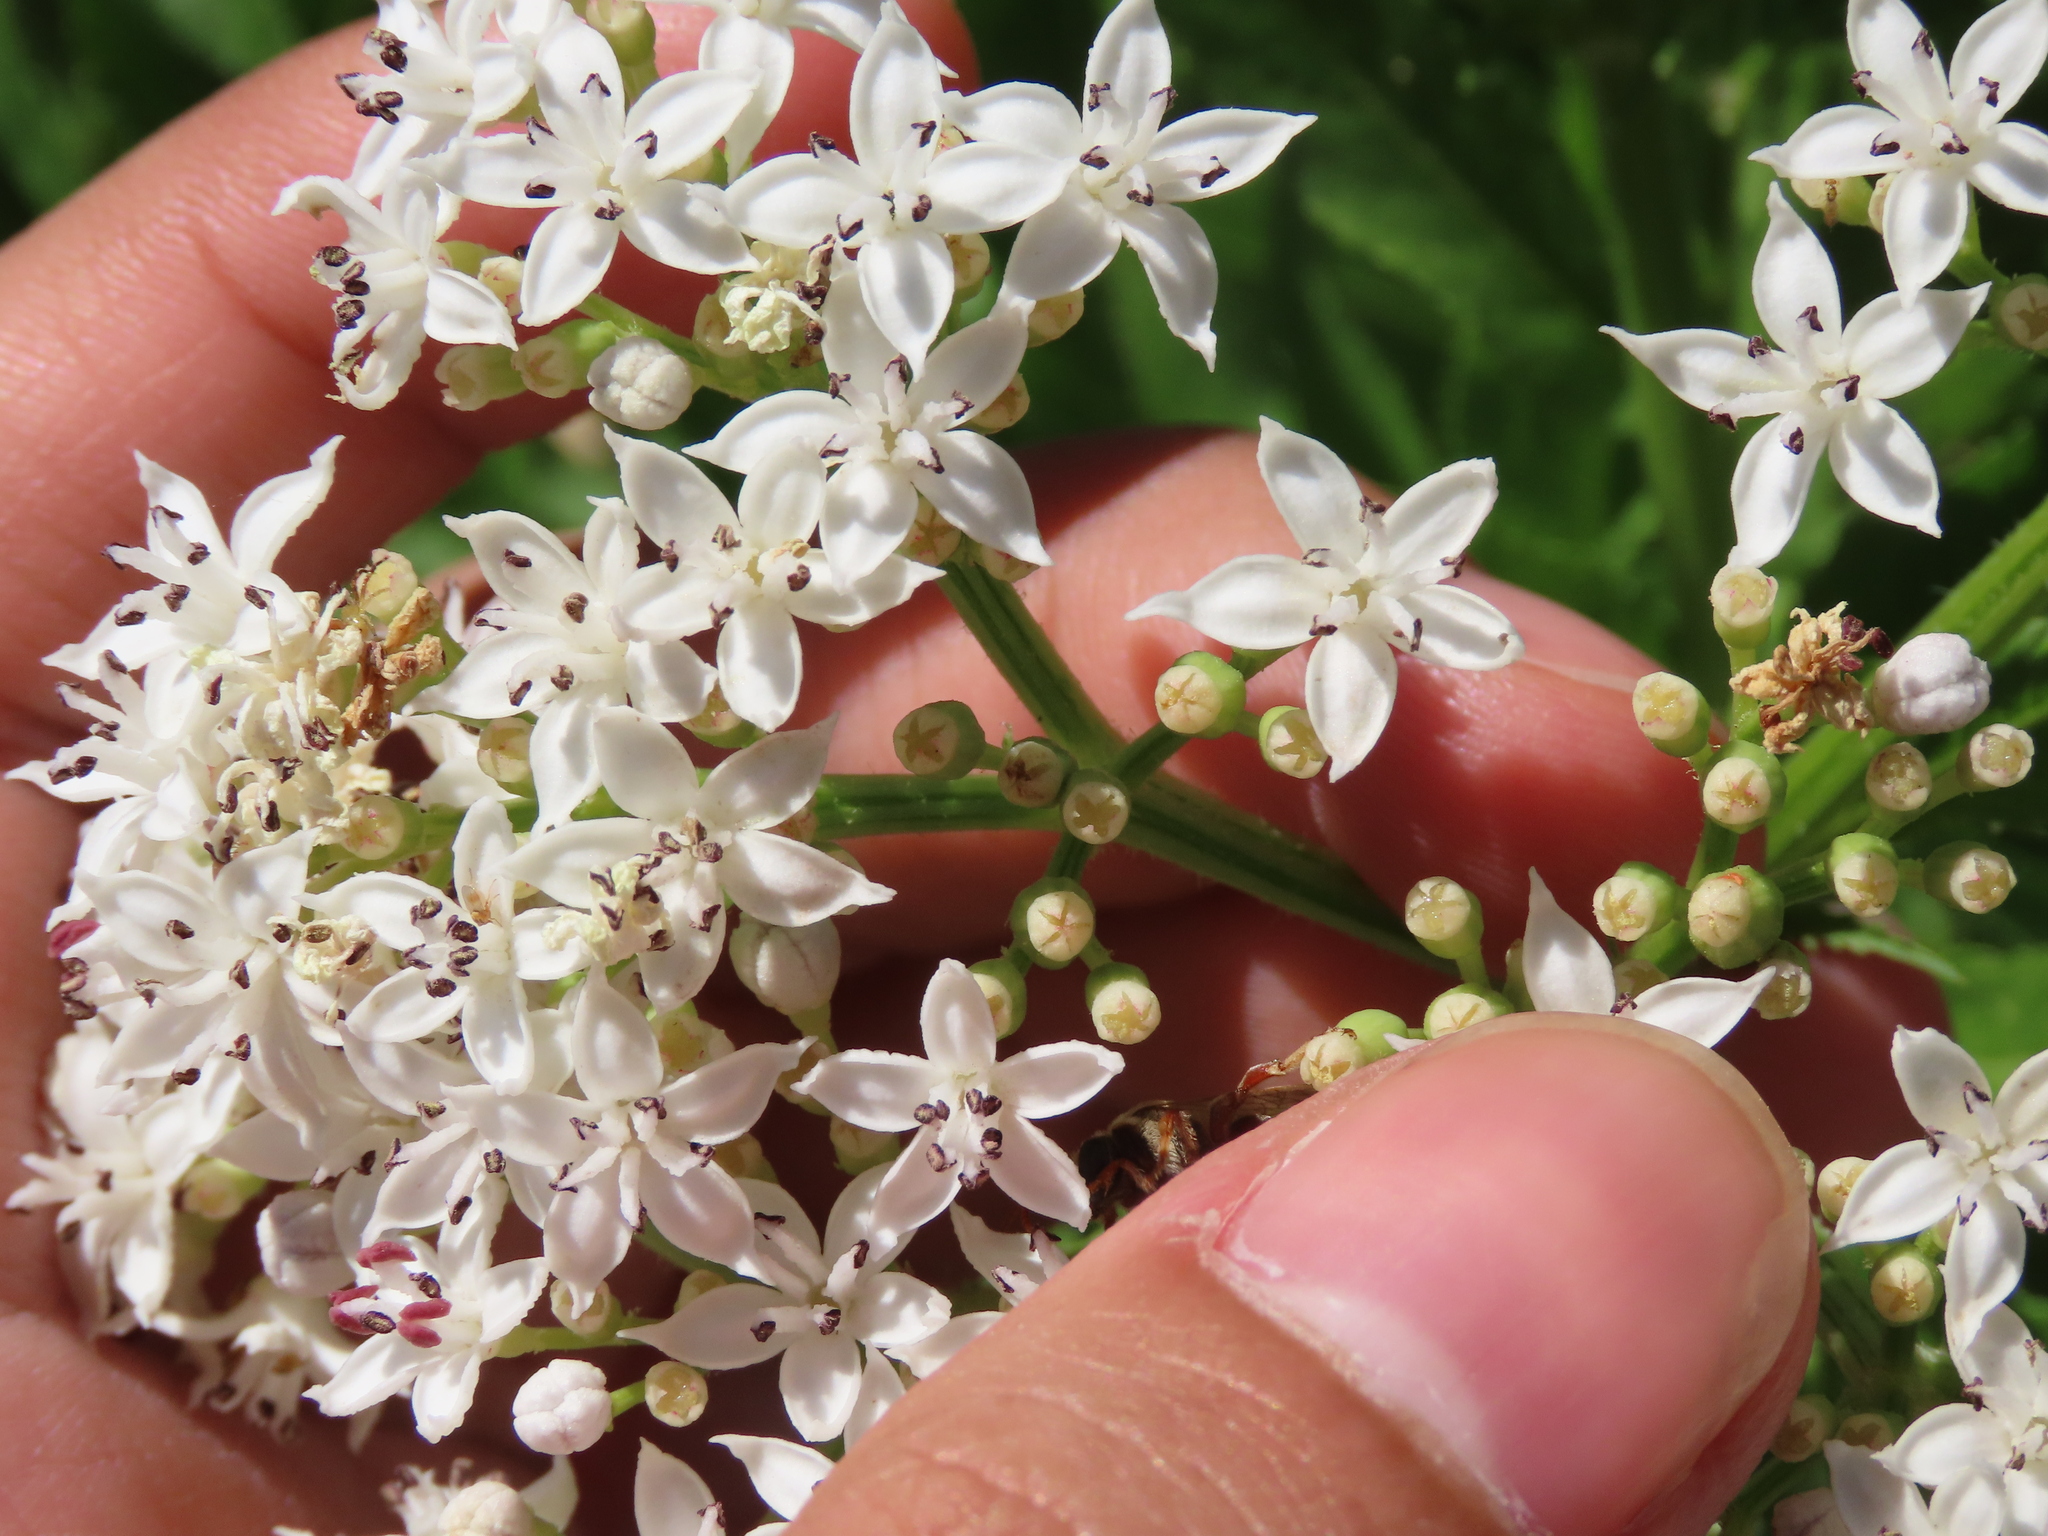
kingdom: Plantae
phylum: Tracheophyta
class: Magnoliopsida
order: Dipsacales
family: Viburnaceae
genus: Sambucus
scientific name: Sambucus ebulus
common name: Dwarf elder
